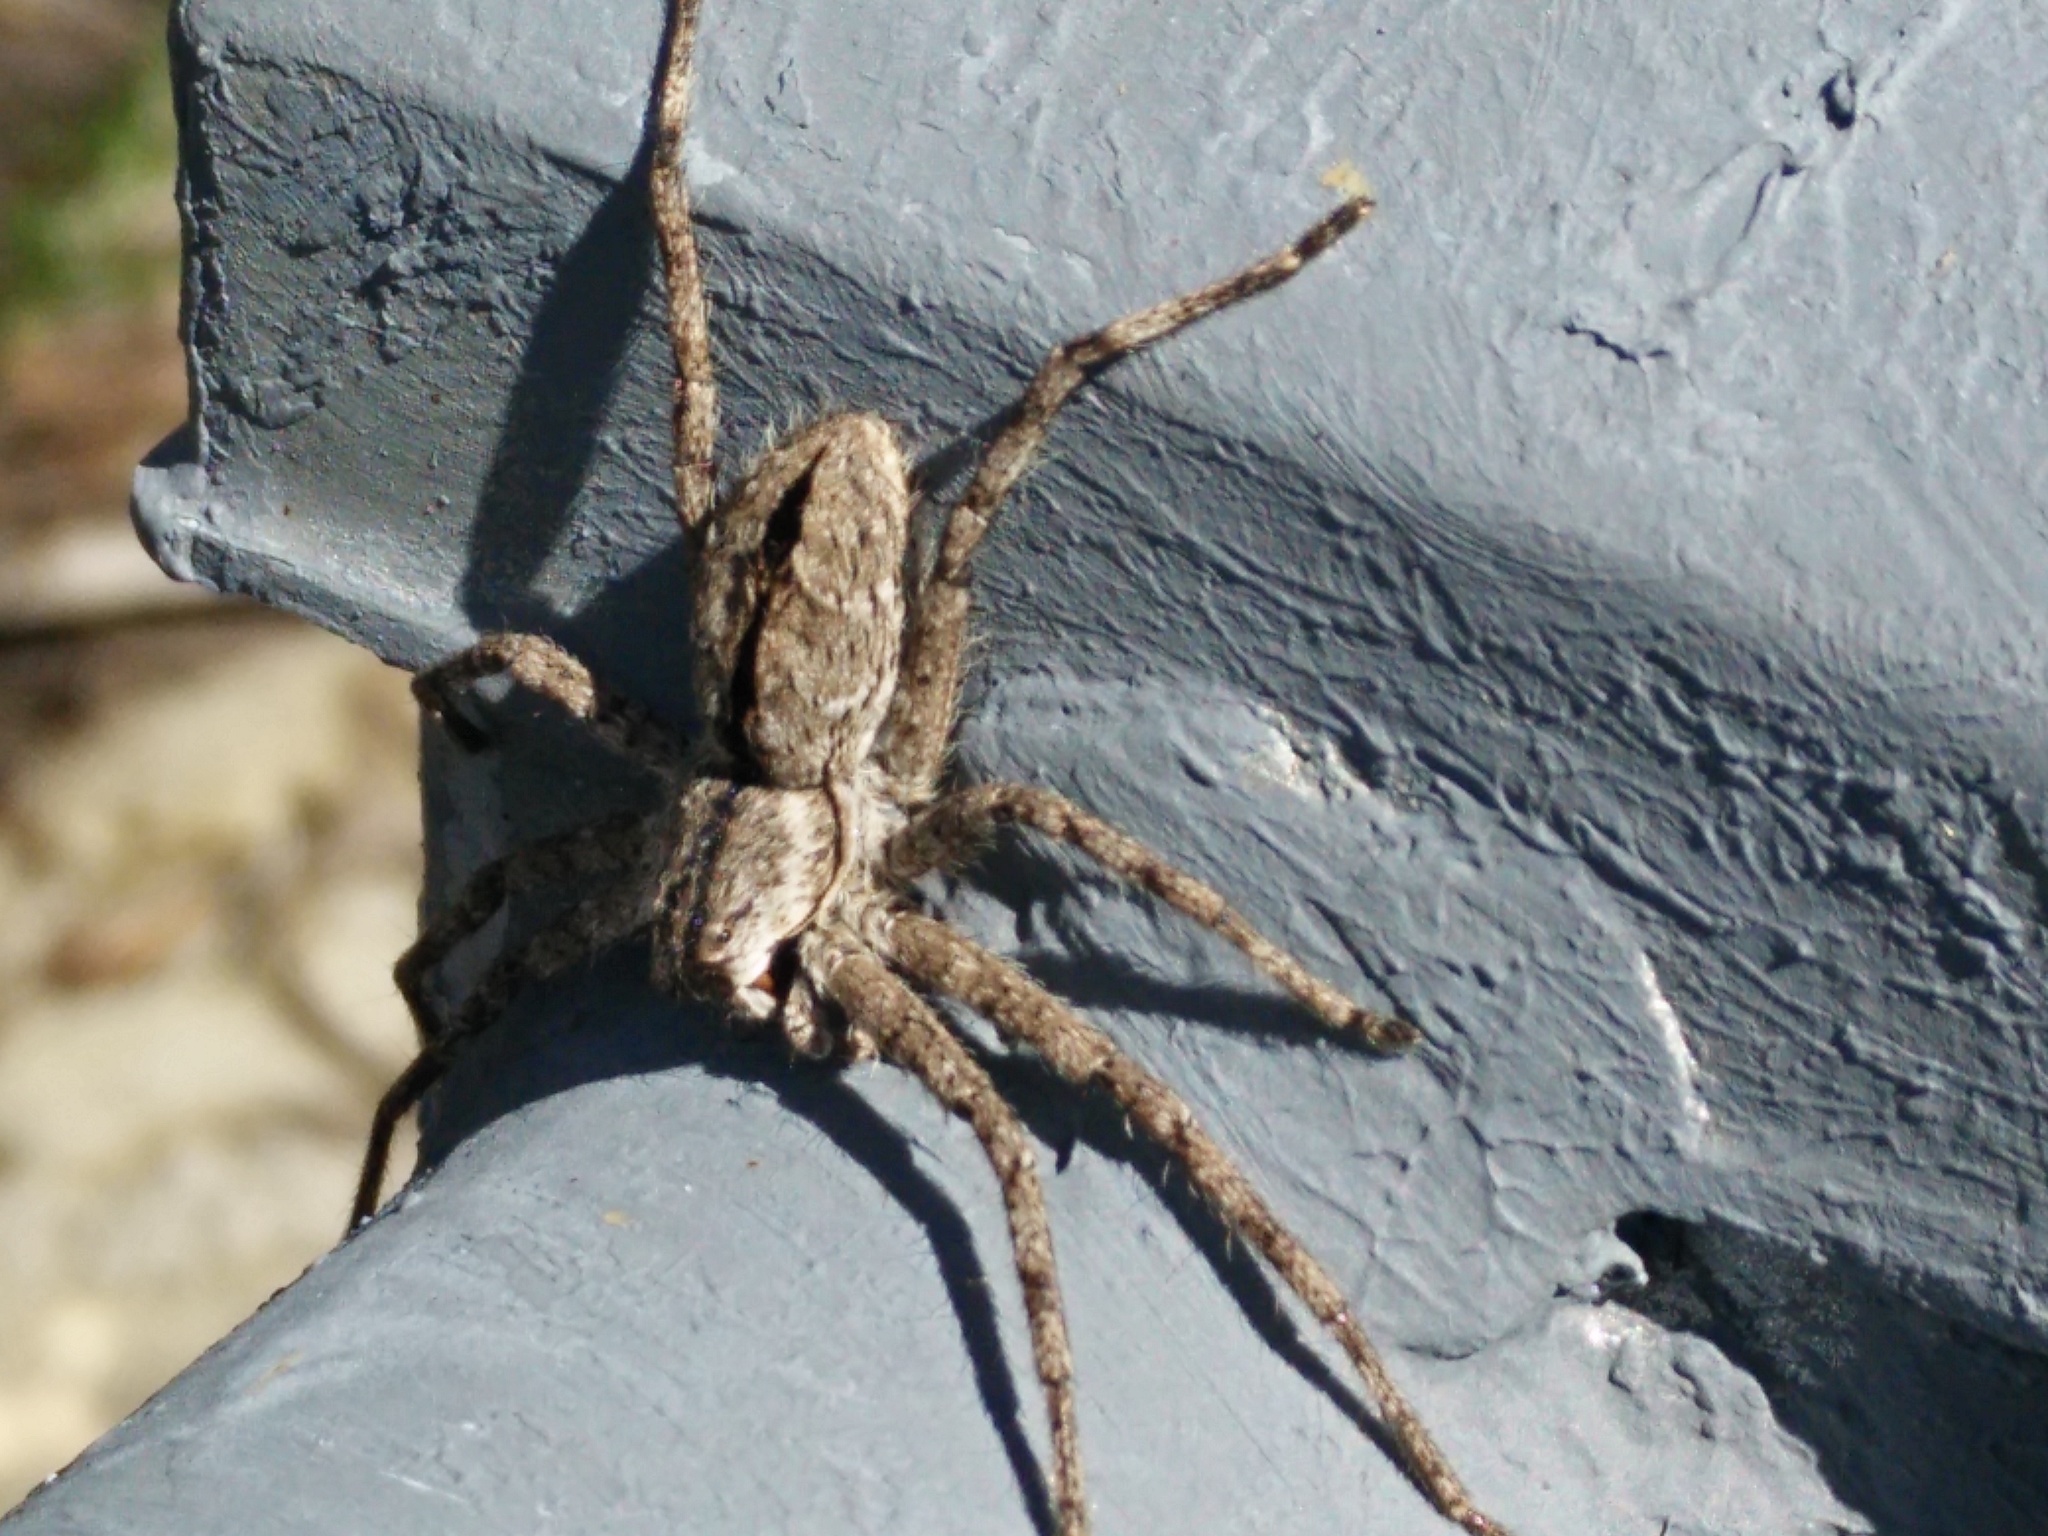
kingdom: Animalia
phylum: Arthropoda
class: Arachnida
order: Araneae
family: Sparassidae
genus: Pediana
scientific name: Pediana regina
